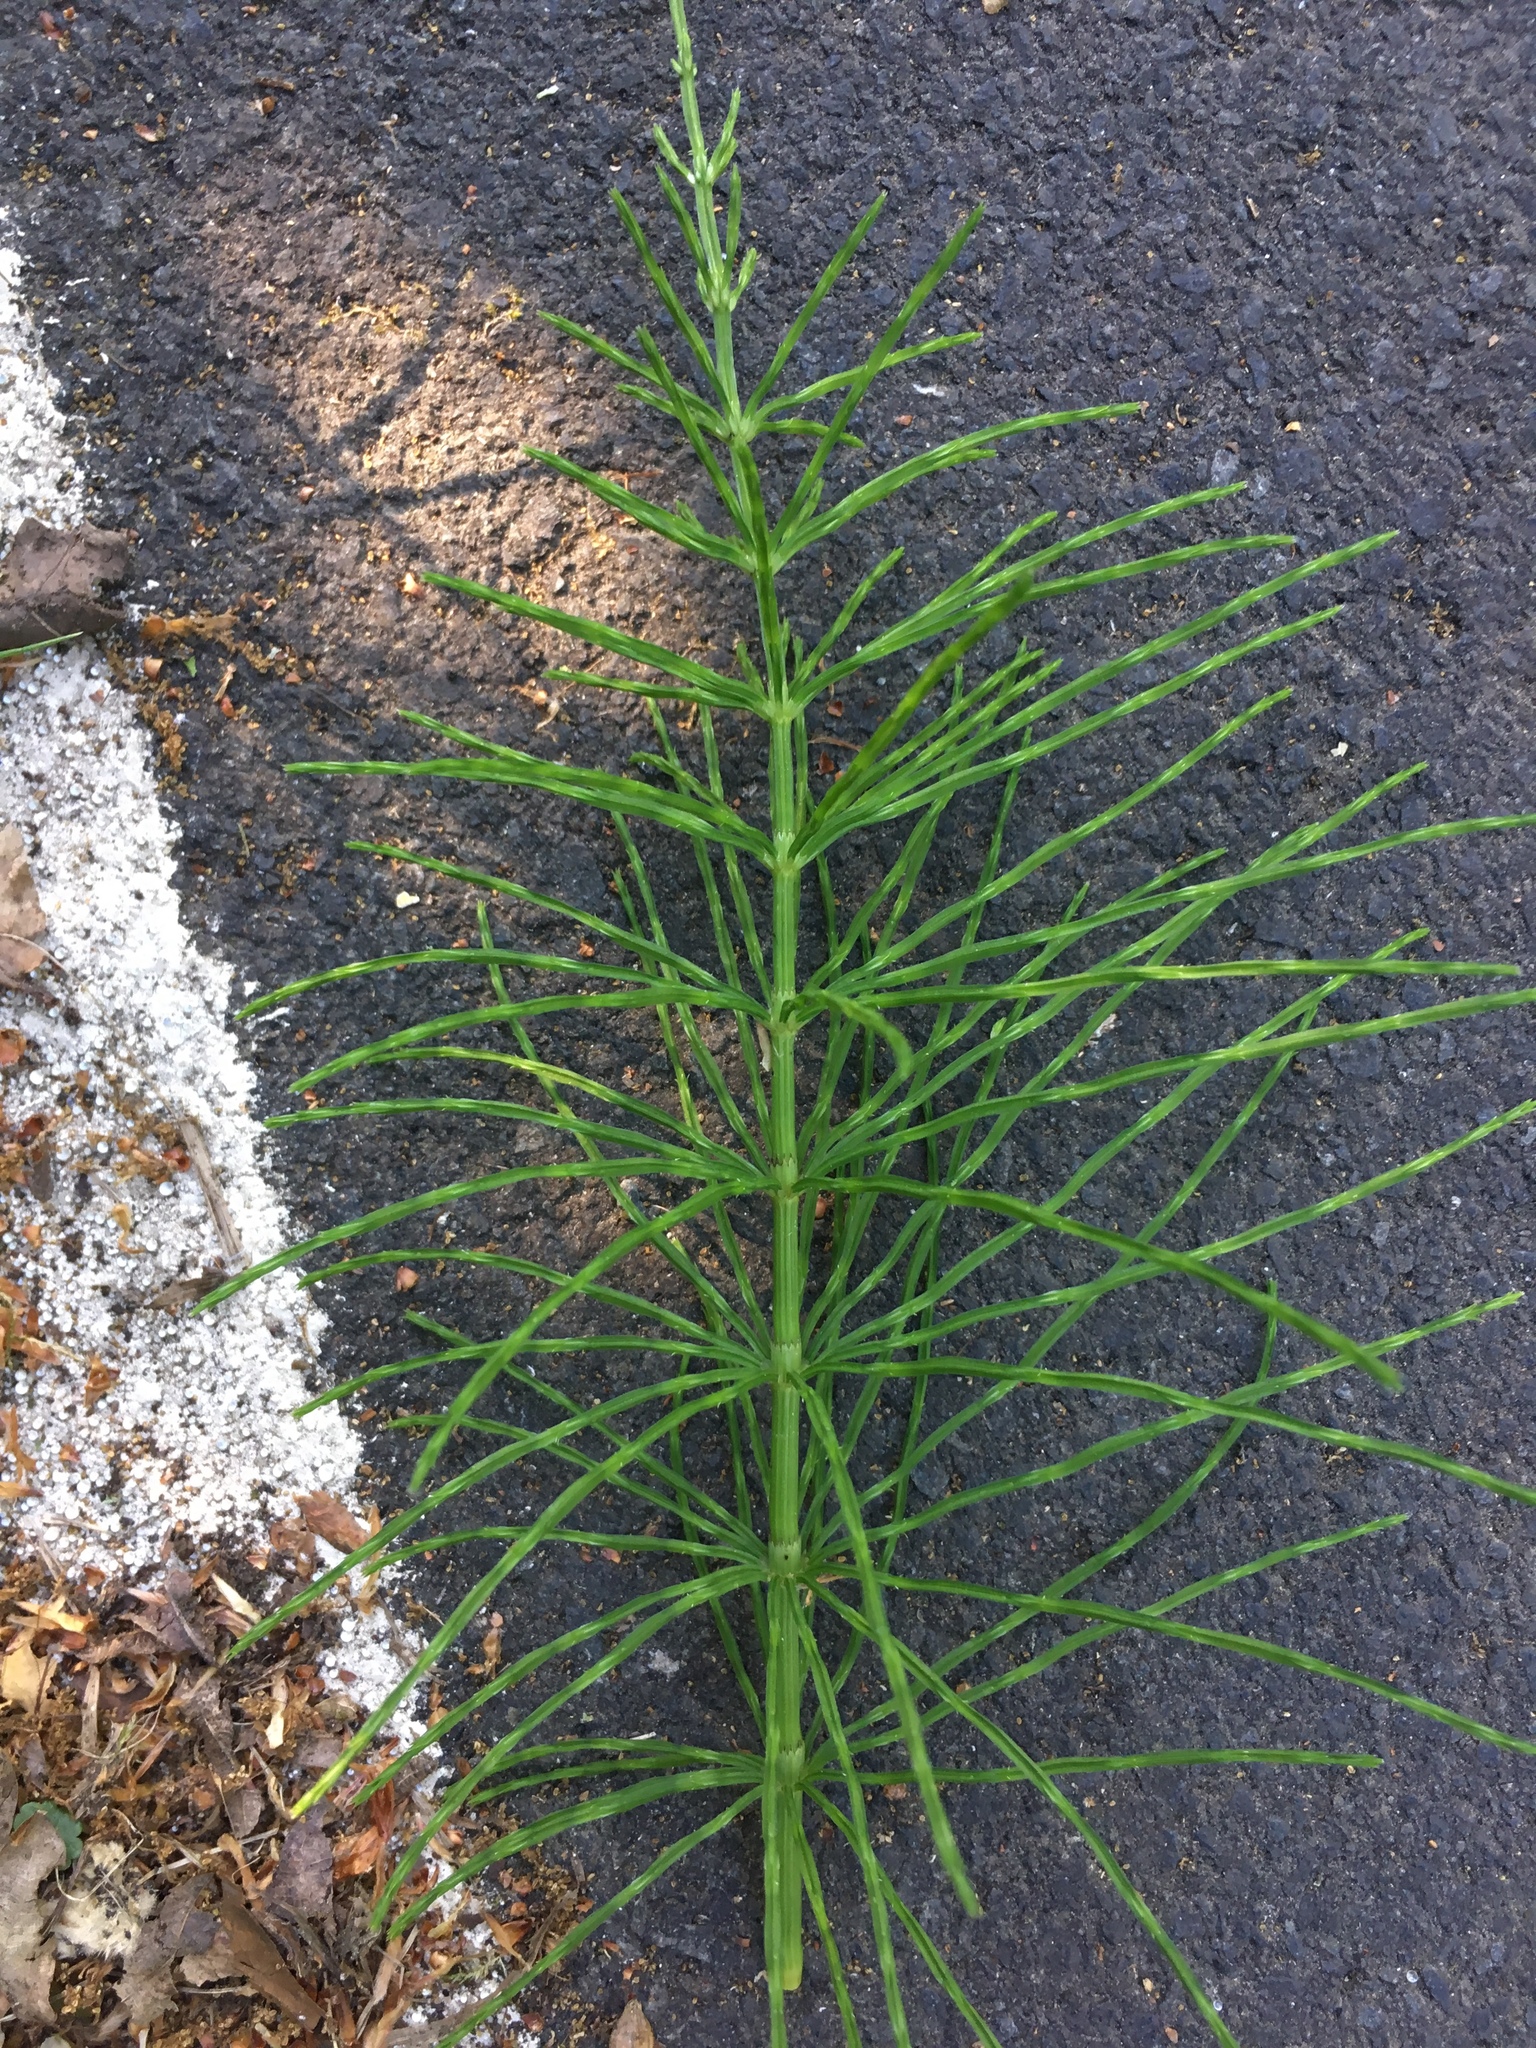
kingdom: Plantae
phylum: Tracheophyta
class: Polypodiopsida
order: Equisetales
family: Equisetaceae
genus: Equisetum
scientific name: Equisetum arvense
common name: Field horsetail
